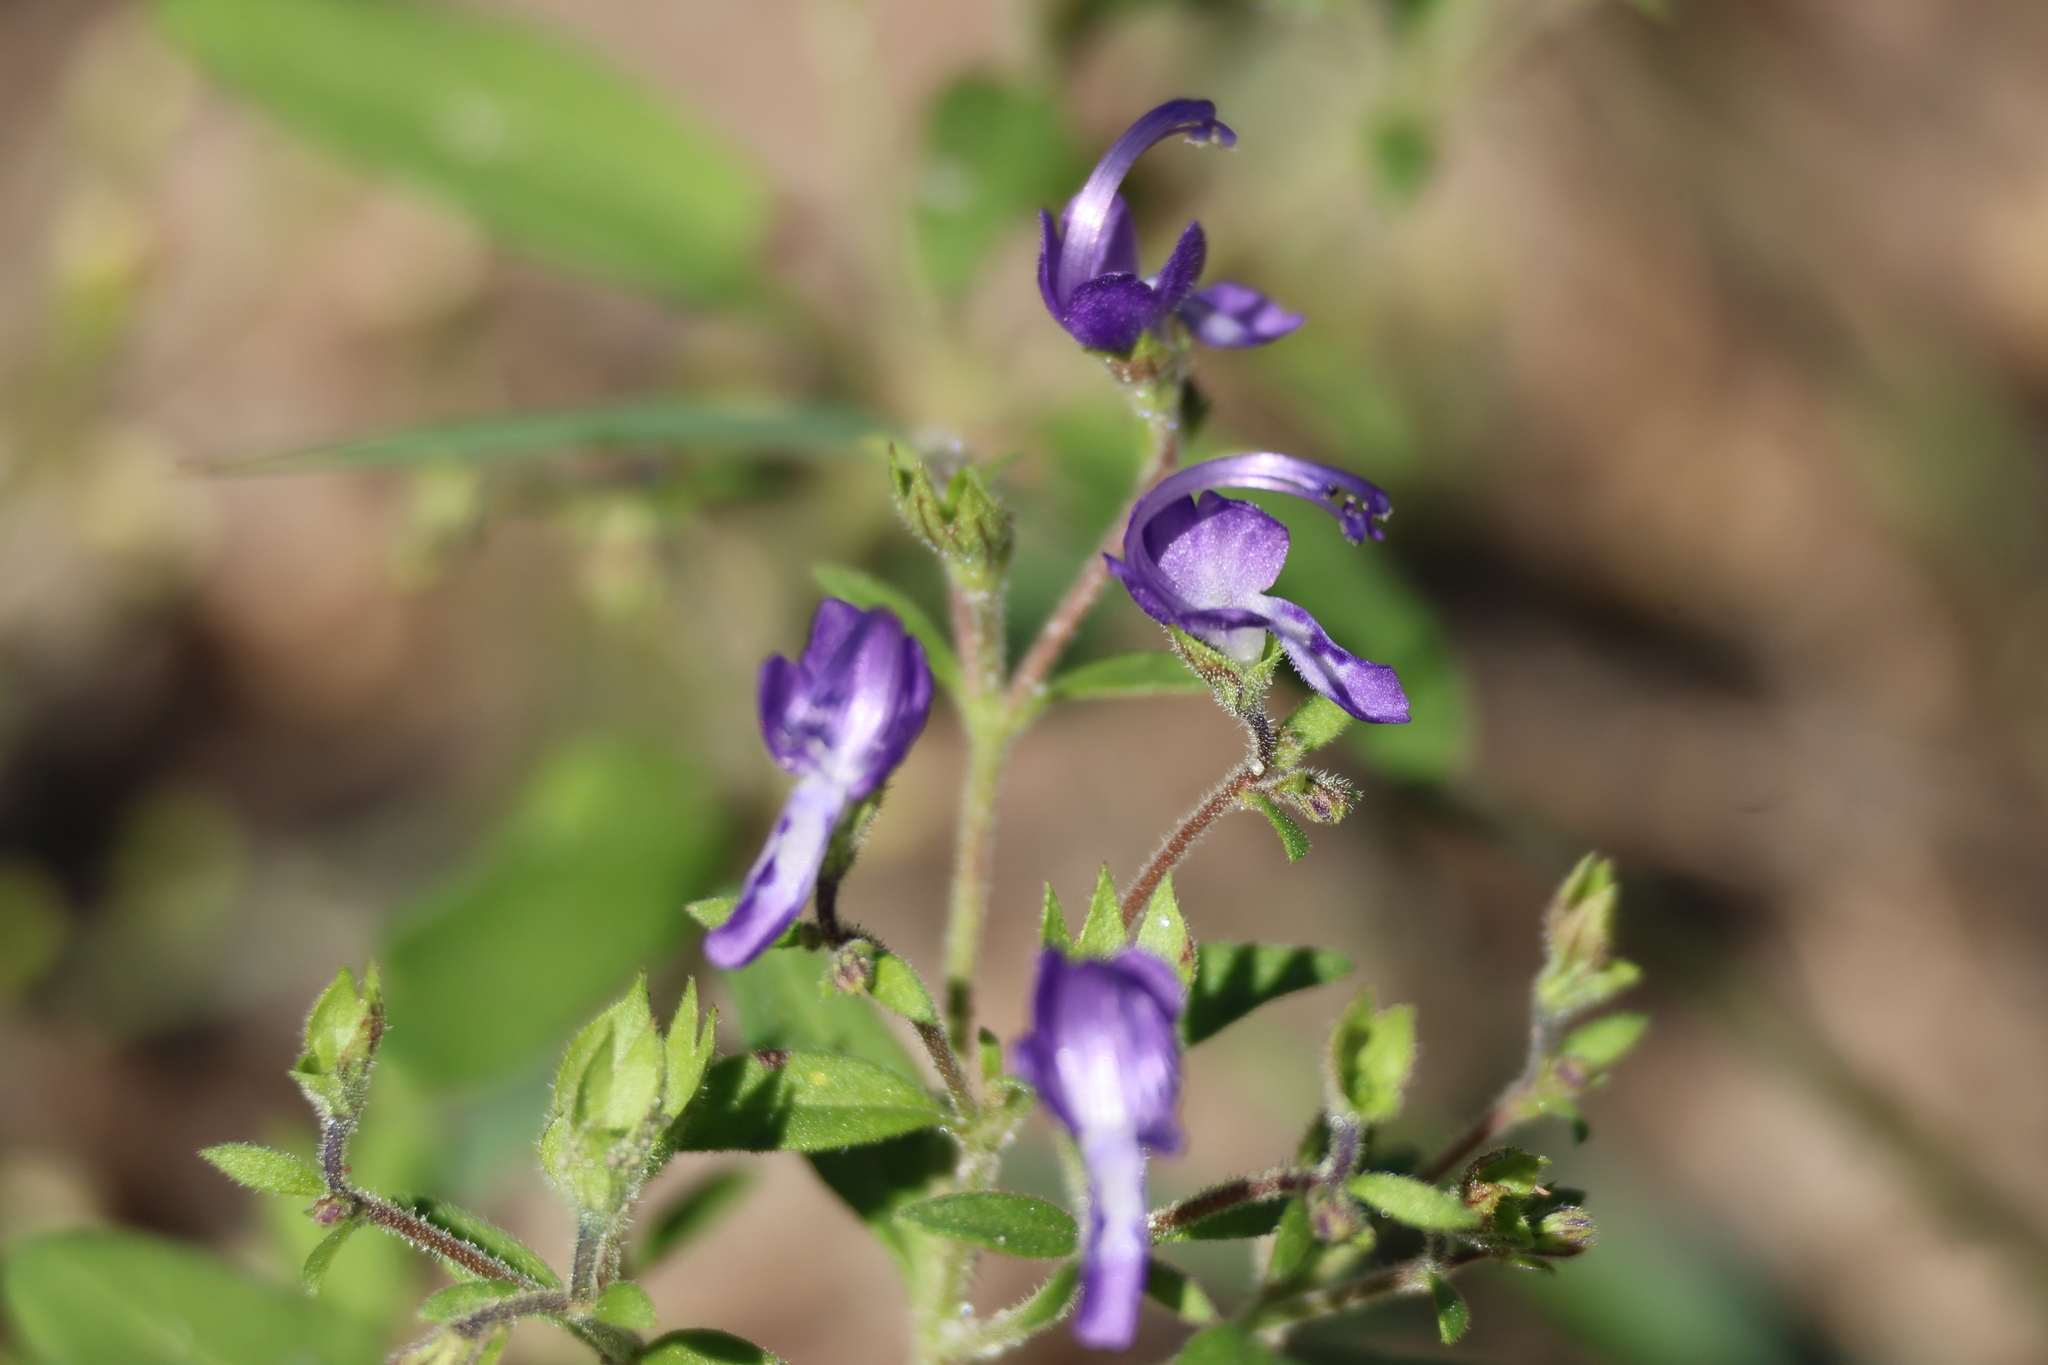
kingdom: Plantae
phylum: Tracheophyta
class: Magnoliopsida
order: Lamiales
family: Lamiaceae
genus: Trichostema
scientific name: Trichostema dichotomum
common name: Bastard pennyroyal
